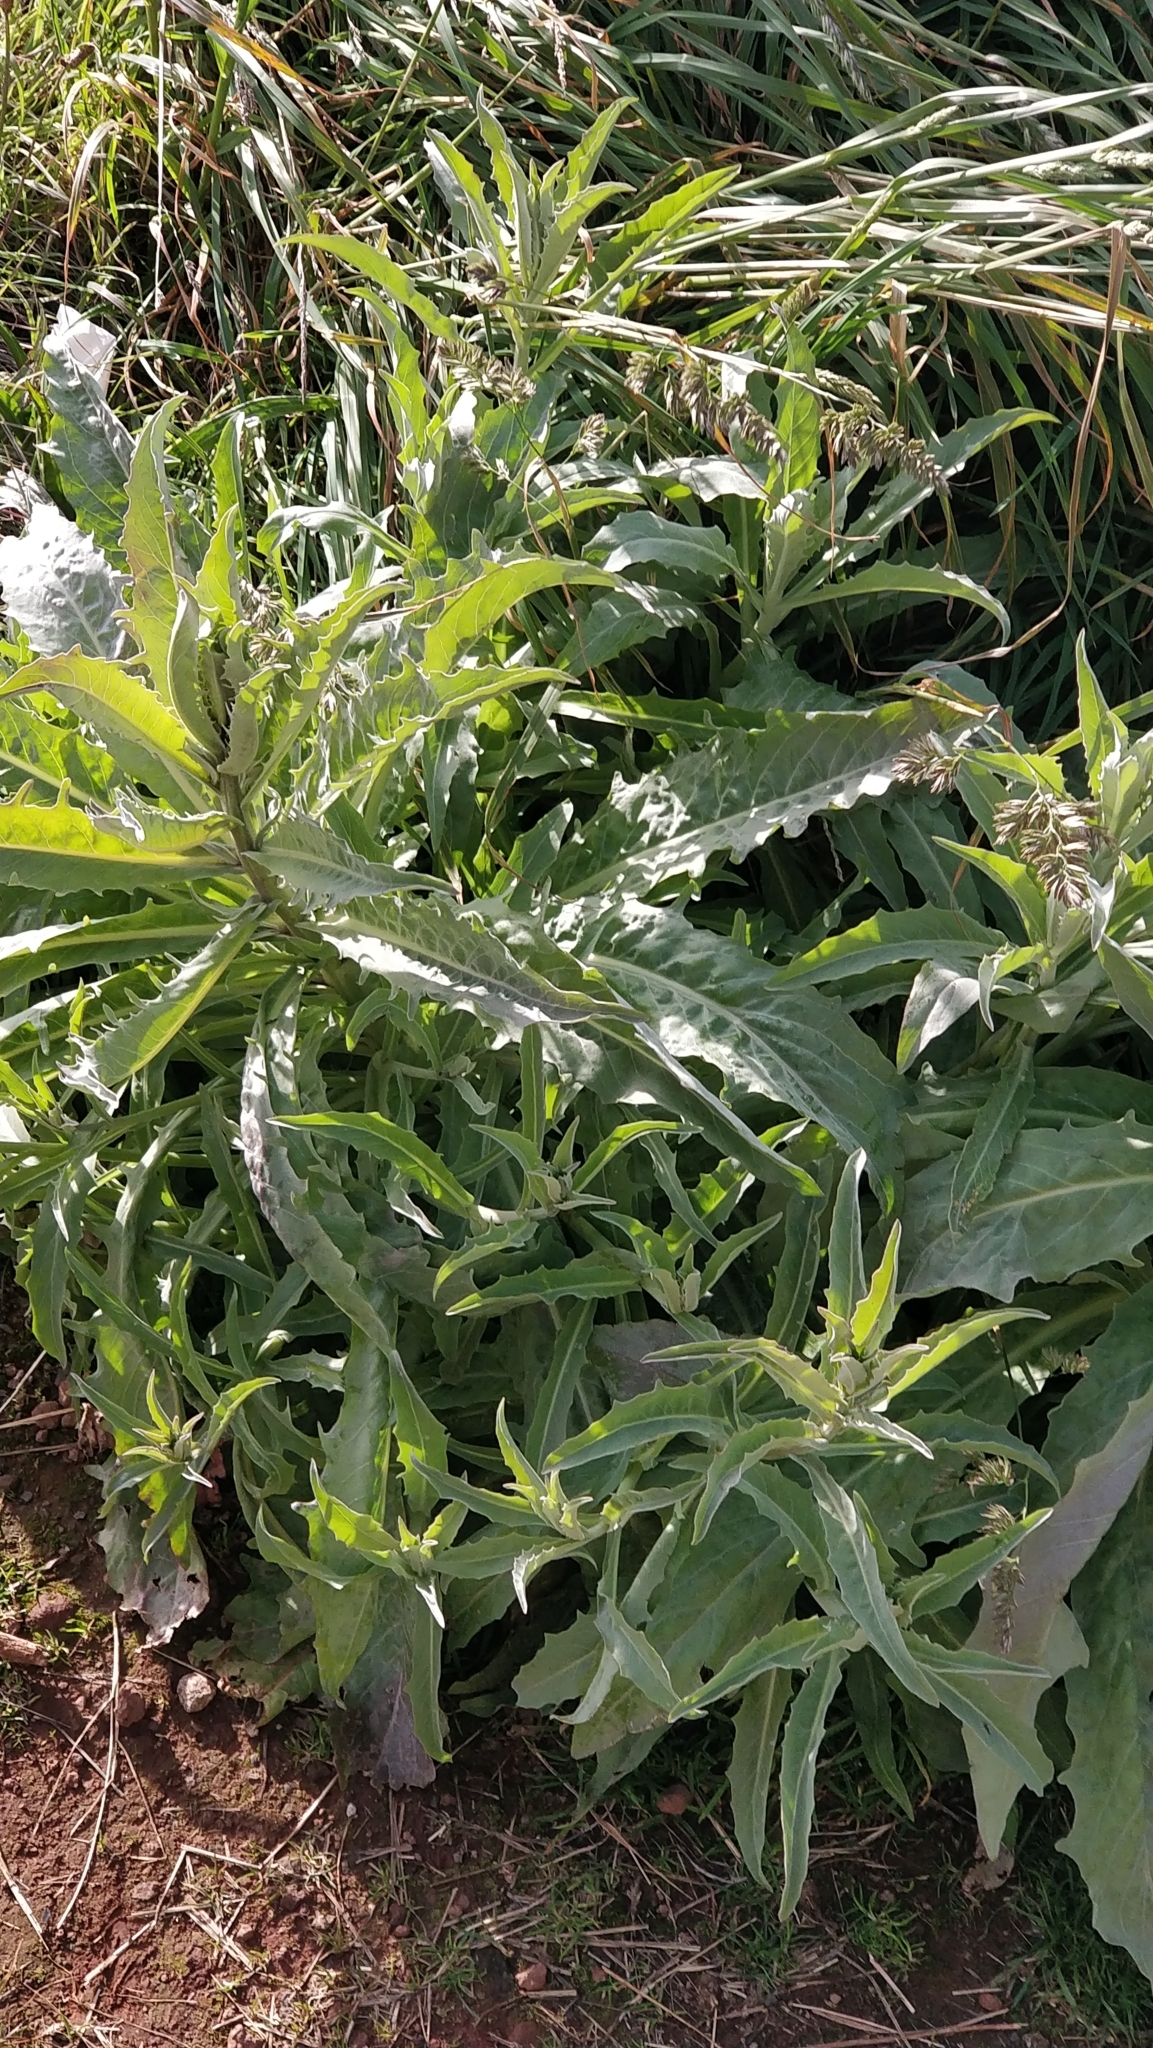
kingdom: Plantae
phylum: Tracheophyta
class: Magnoliopsida
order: Asterales
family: Asteraceae
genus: Andryala
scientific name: Andryala glandulosa
